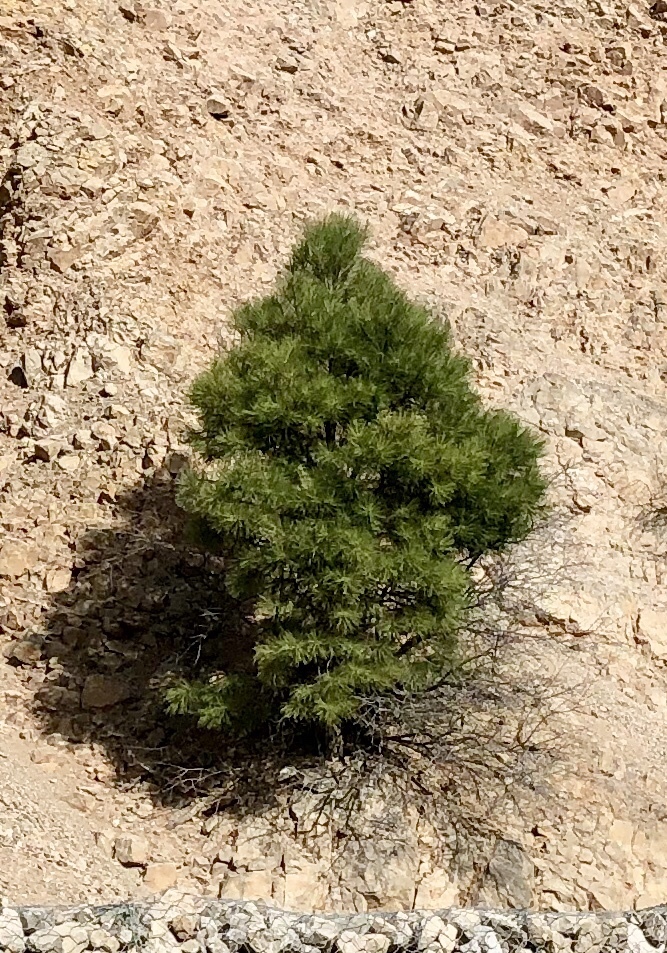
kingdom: Plantae
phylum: Tracheophyta
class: Pinopsida
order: Pinales
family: Pinaceae
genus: Pinus
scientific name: Pinus ponderosa
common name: Western yellow-pine
